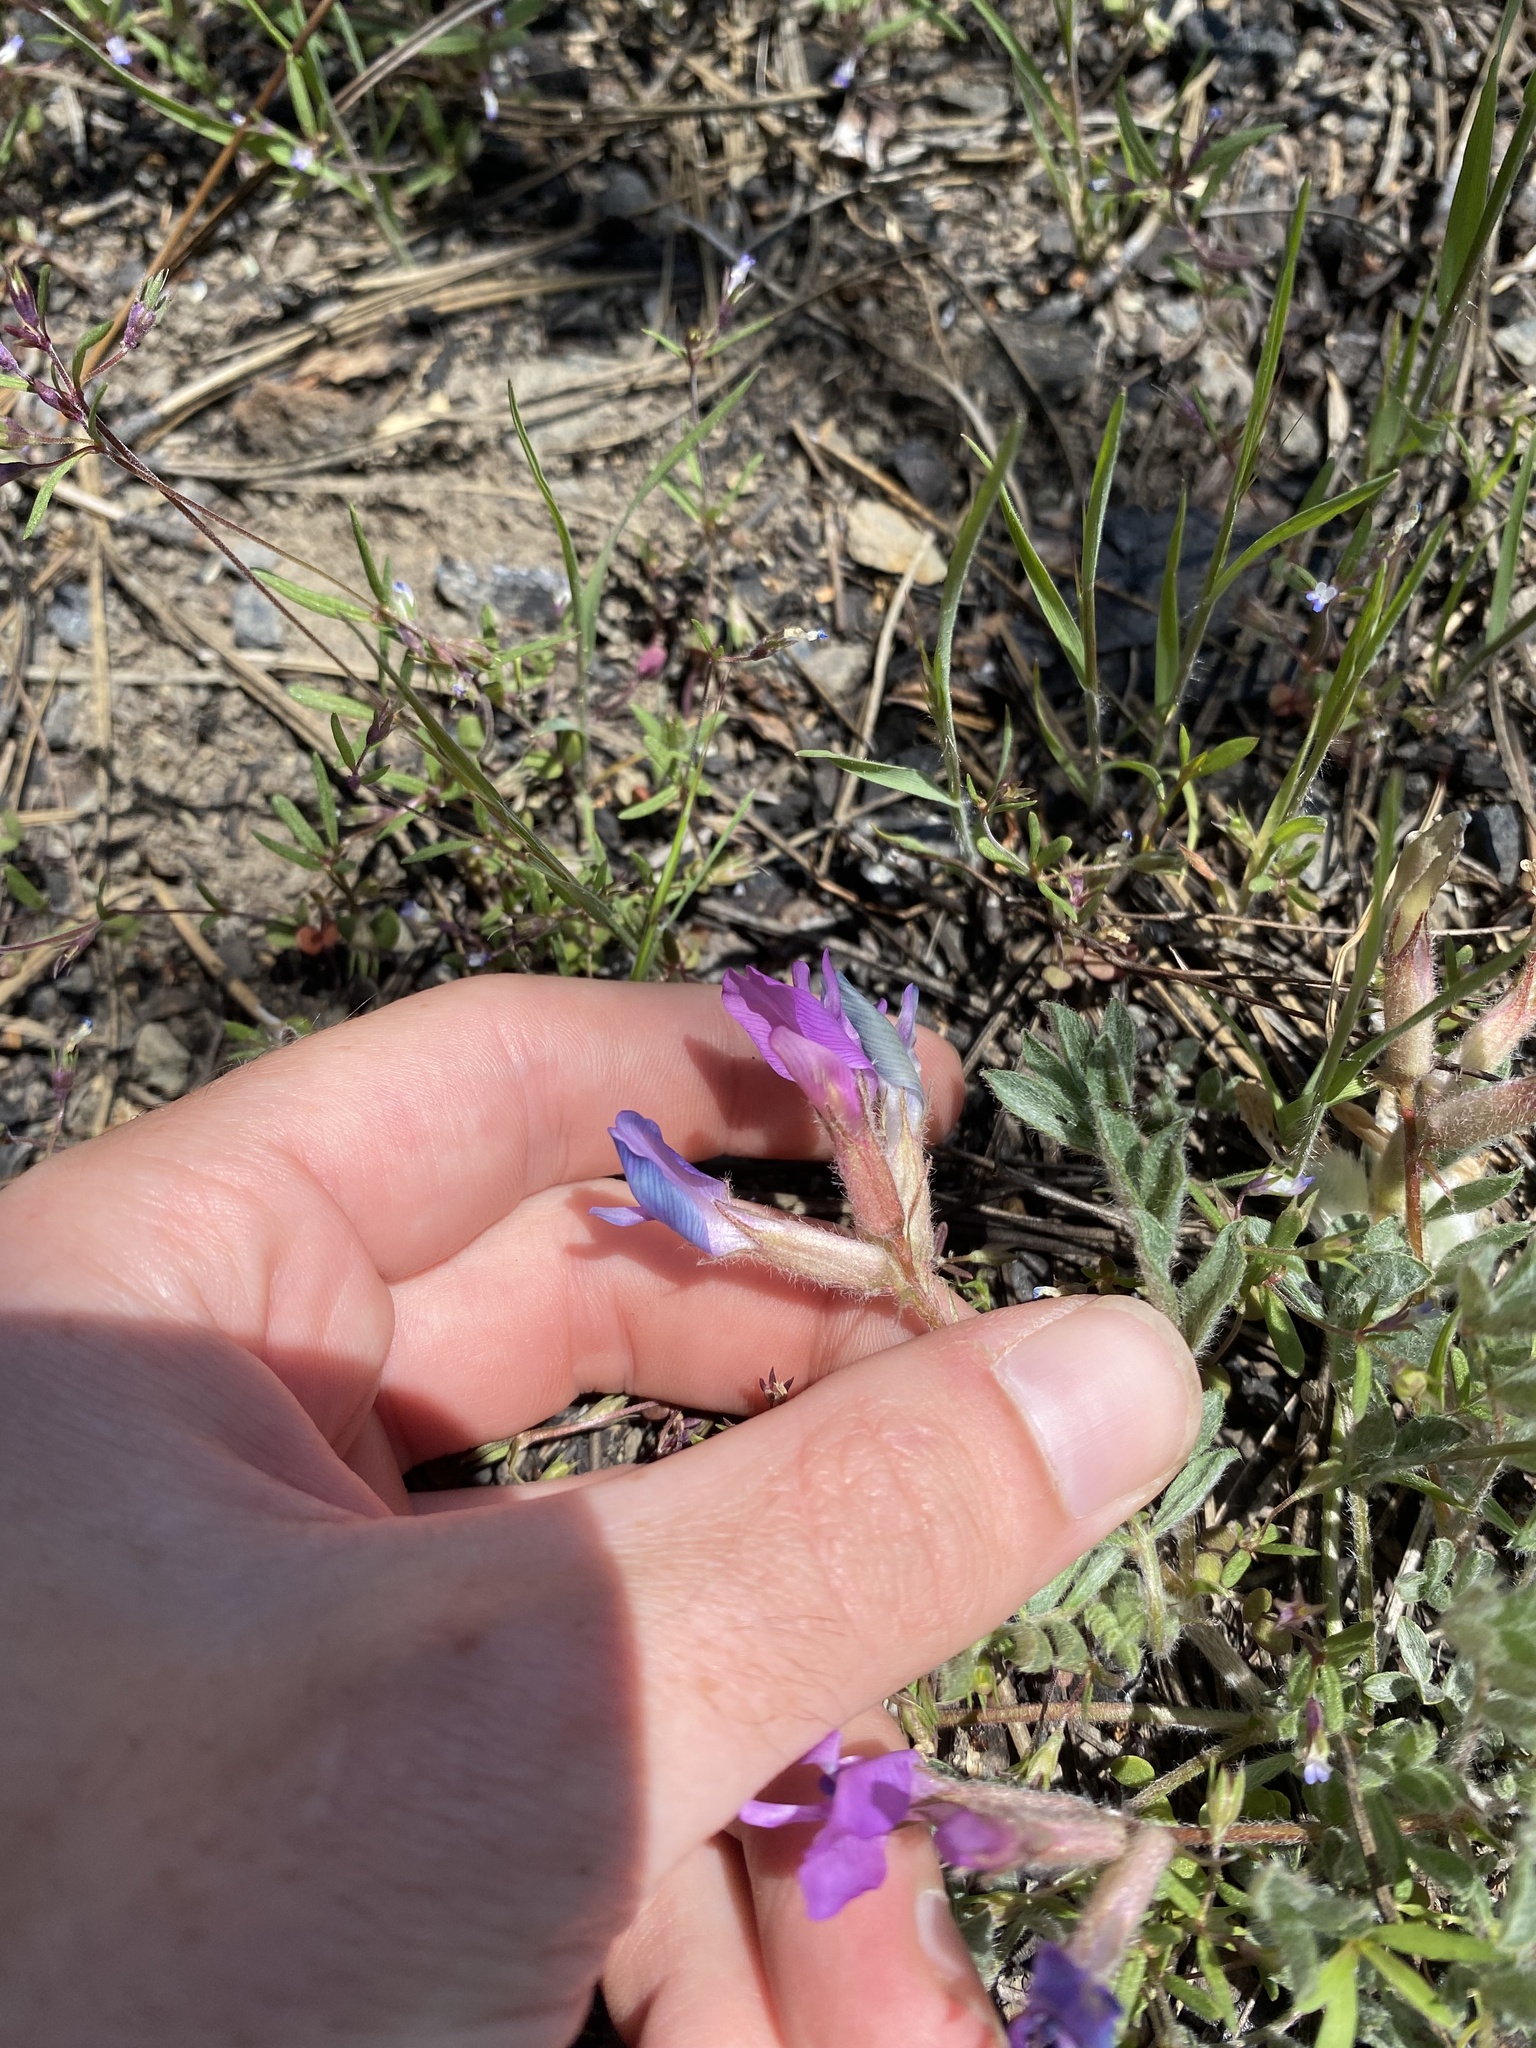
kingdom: Plantae
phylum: Tracheophyta
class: Magnoliopsida
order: Fabales
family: Fabaceae
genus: Astragalus
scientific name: Astragalus purshii
